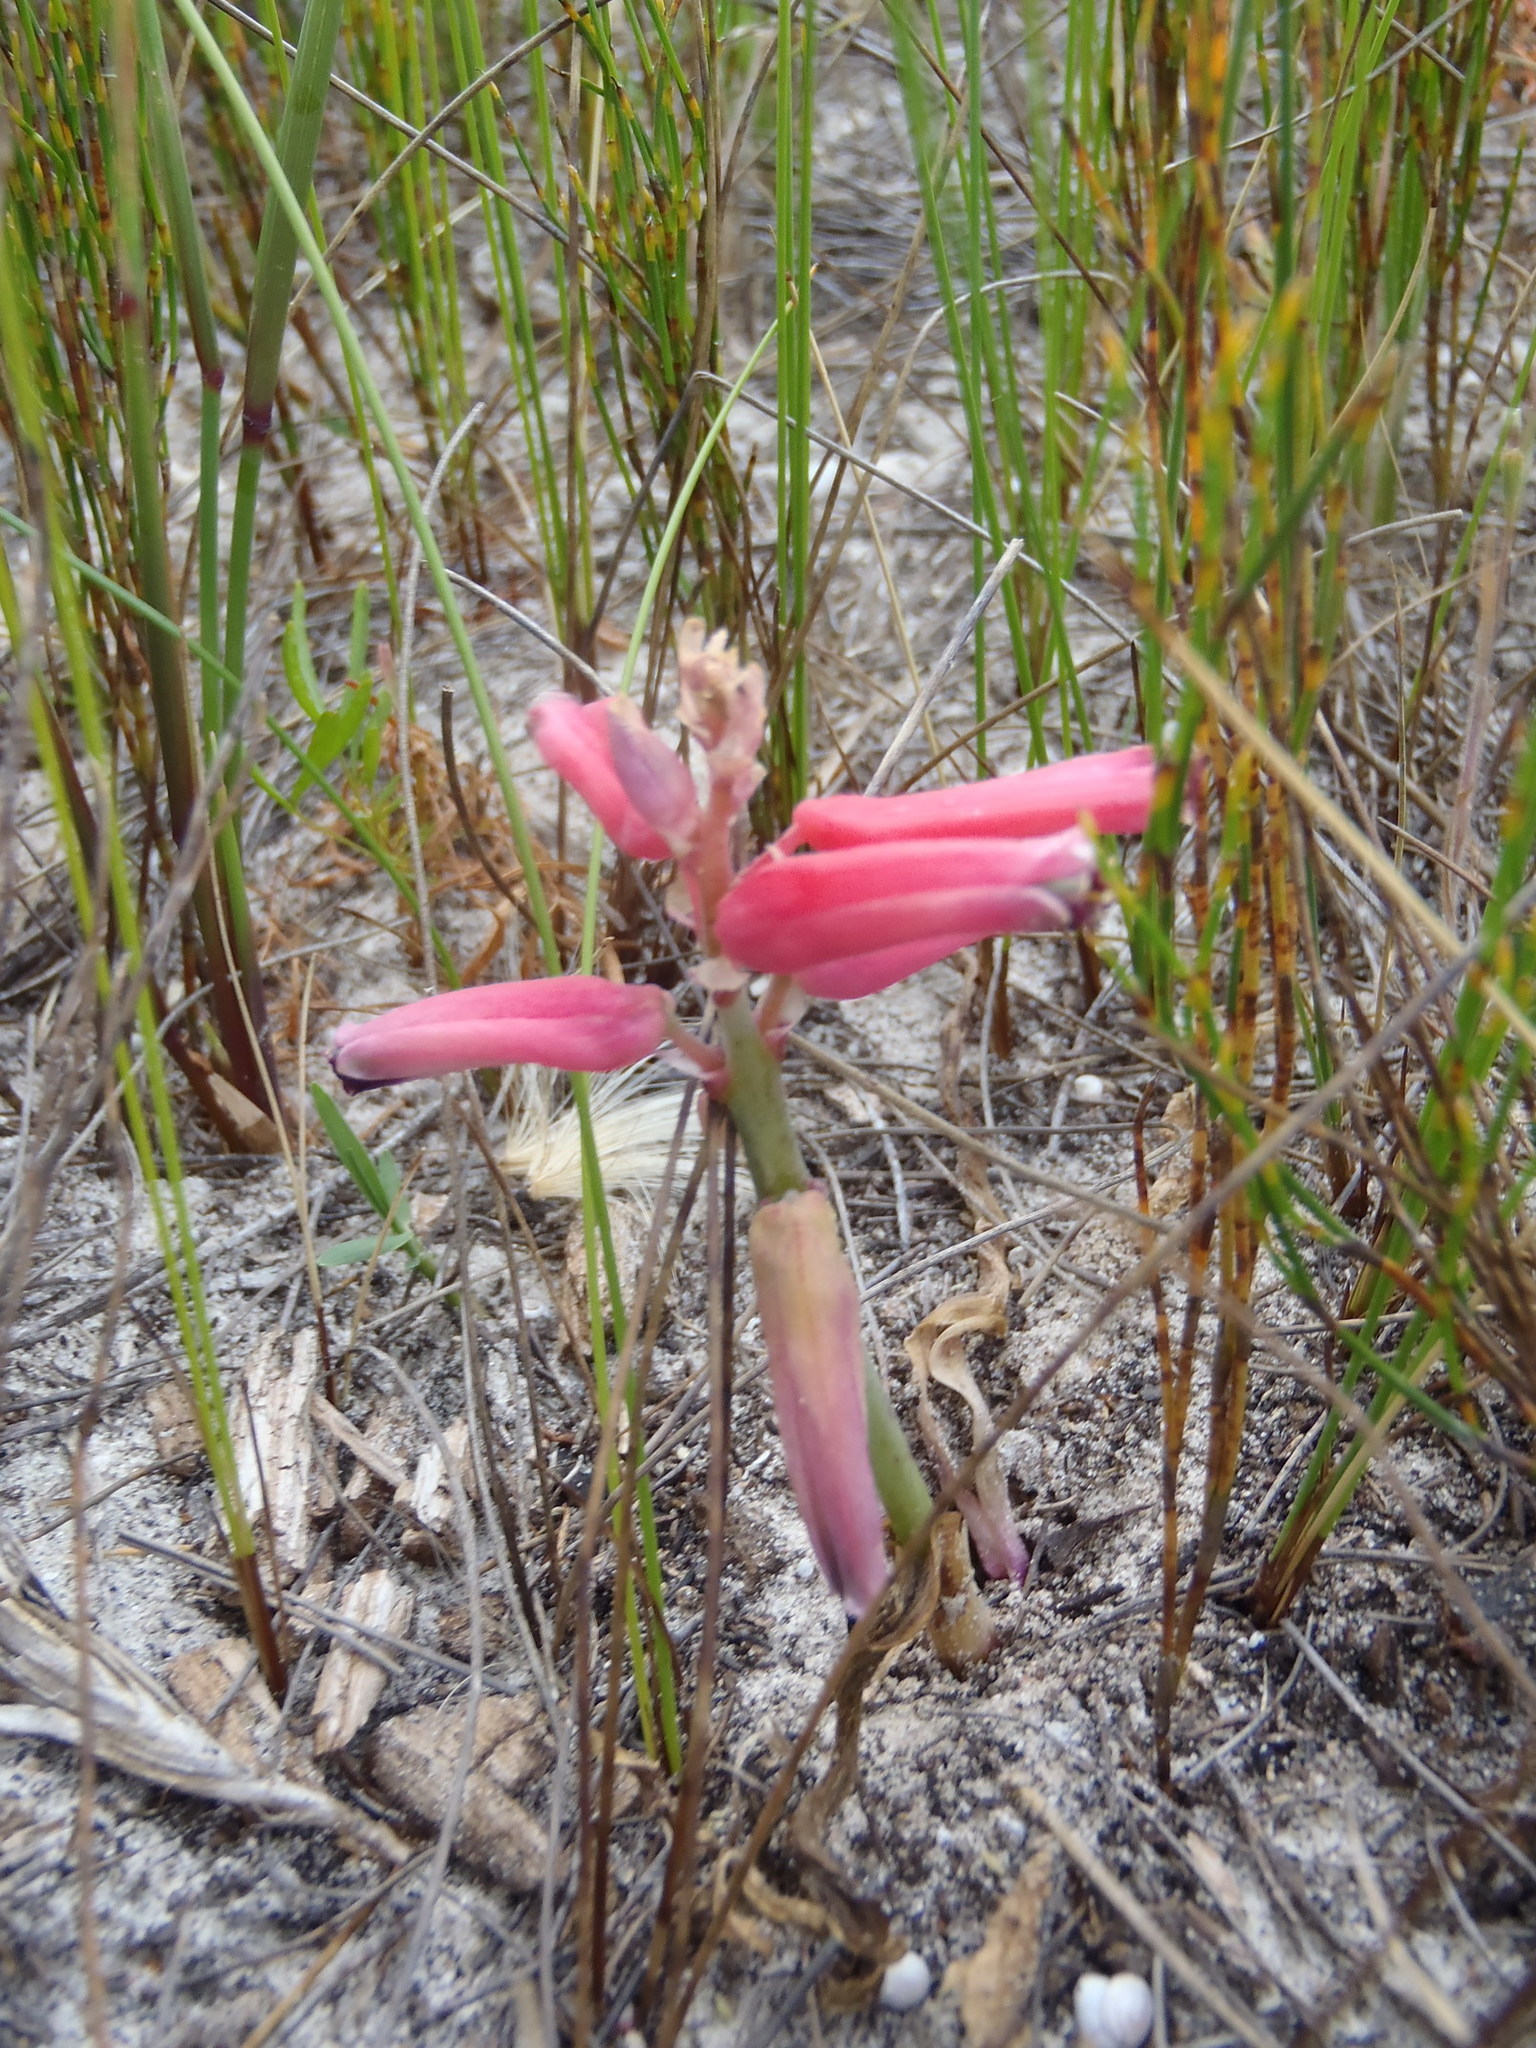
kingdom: Plantae
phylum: Tracheophyta
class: Liliopsida
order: Asparagales
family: Asparagaceae
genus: Lachenalia
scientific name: Lachenalia bulbifera
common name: Red lachenalia
